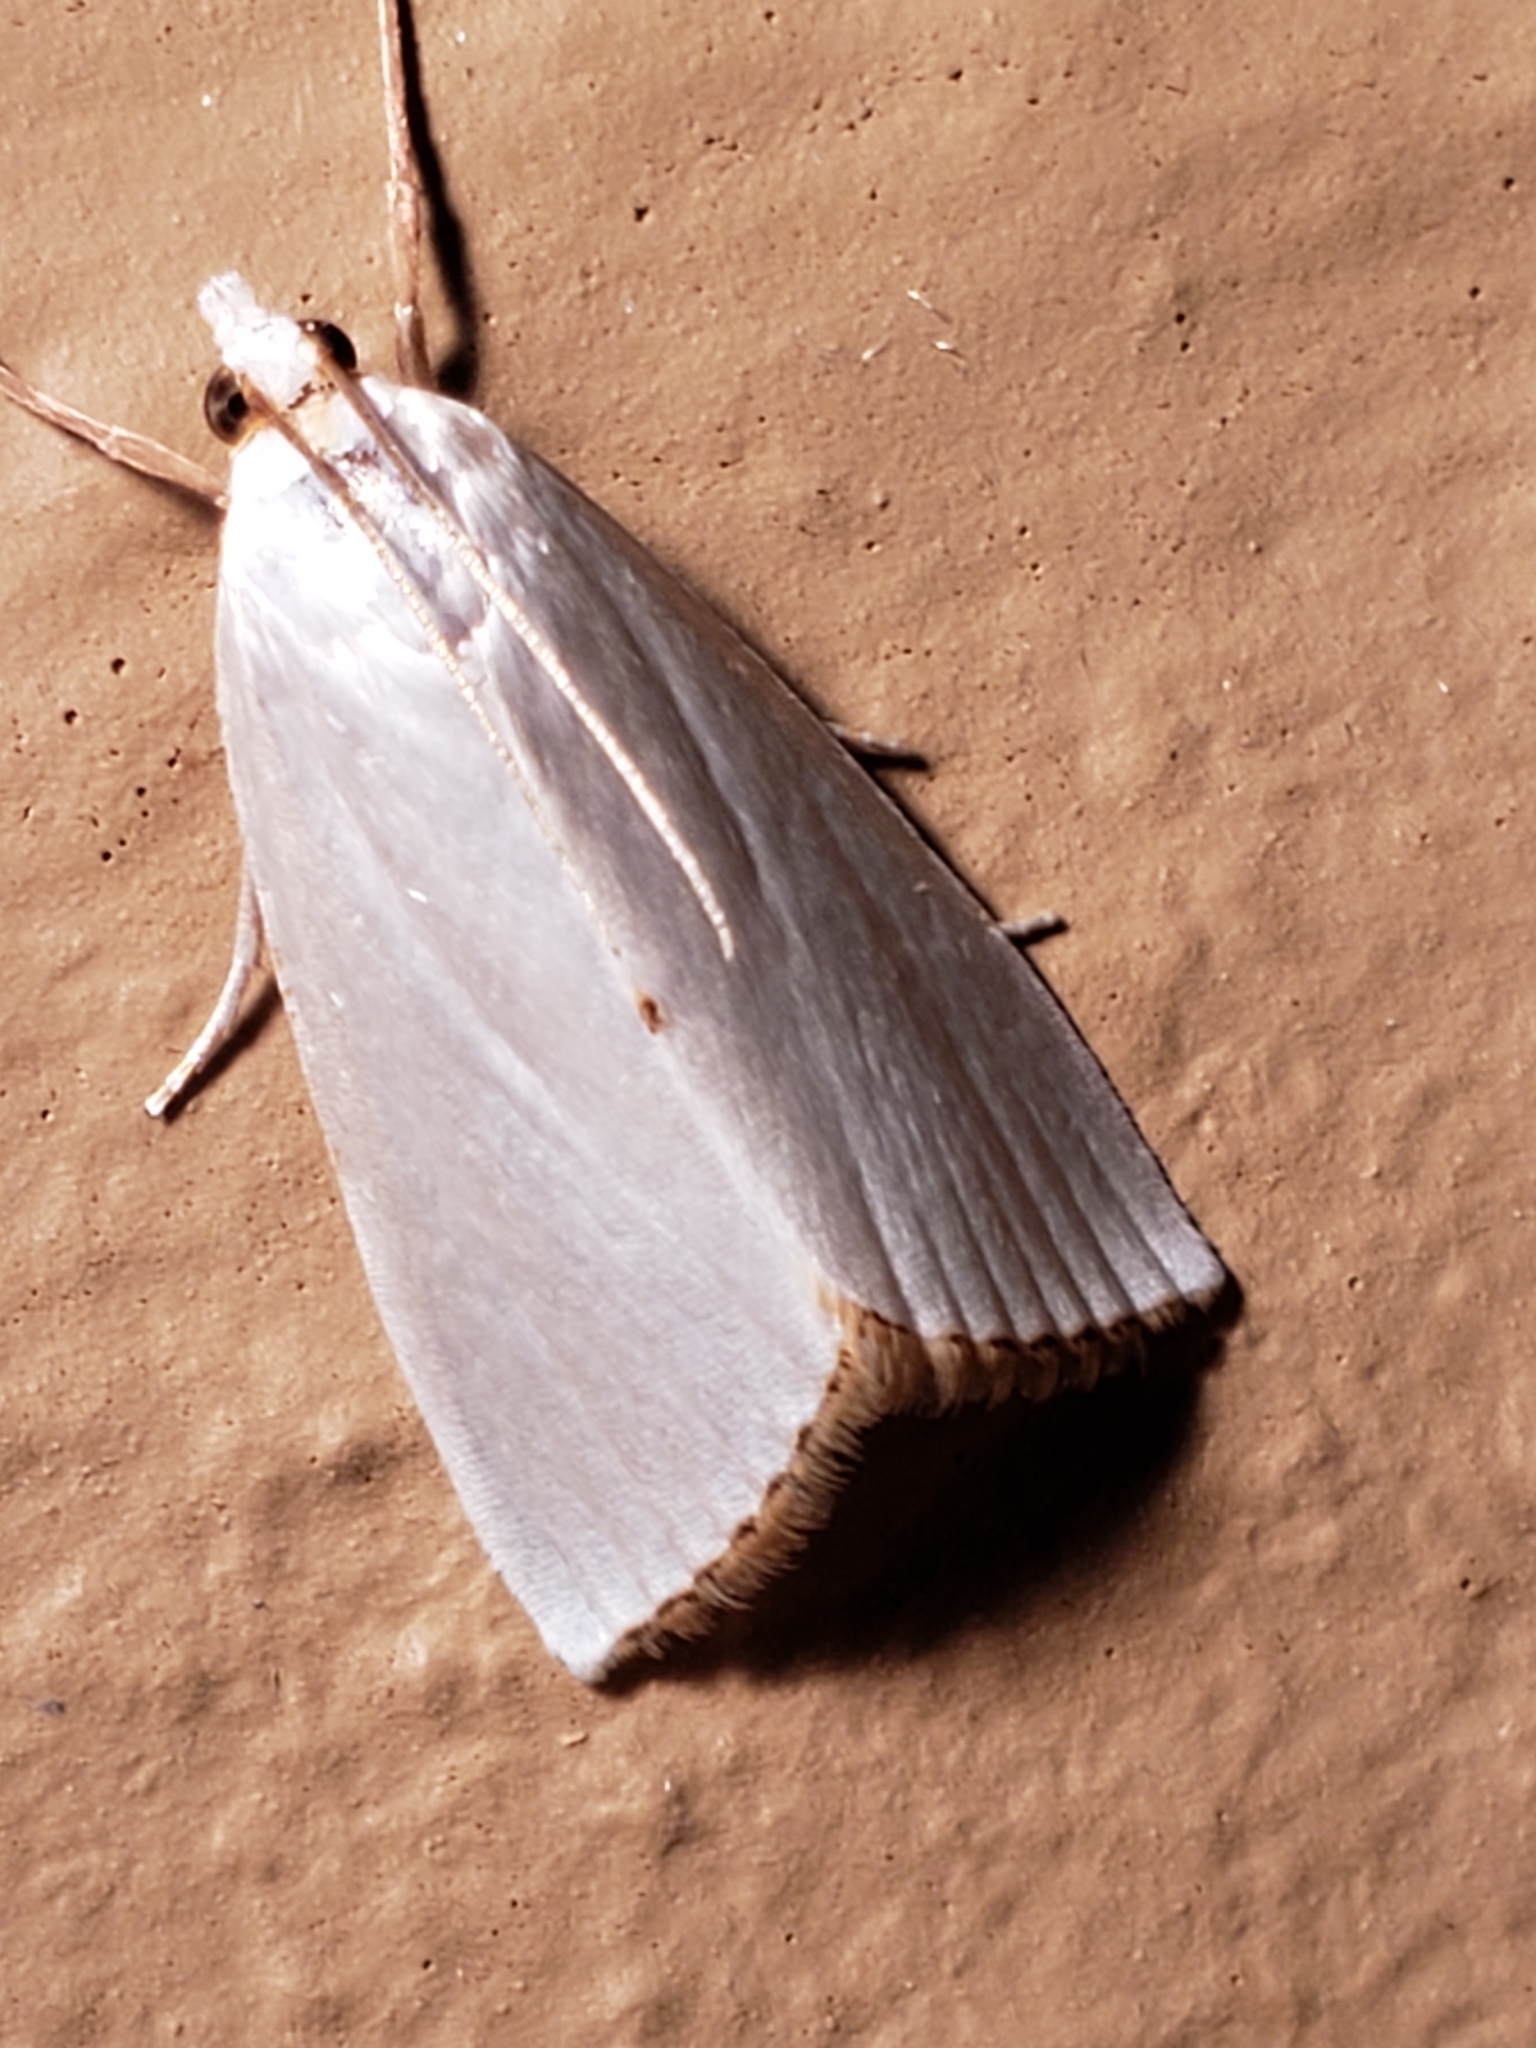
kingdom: Animalia
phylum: Arthropoda
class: Insecta
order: Lepidoptera
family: Crambidae
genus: Argyria
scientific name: Argyria nivalis
